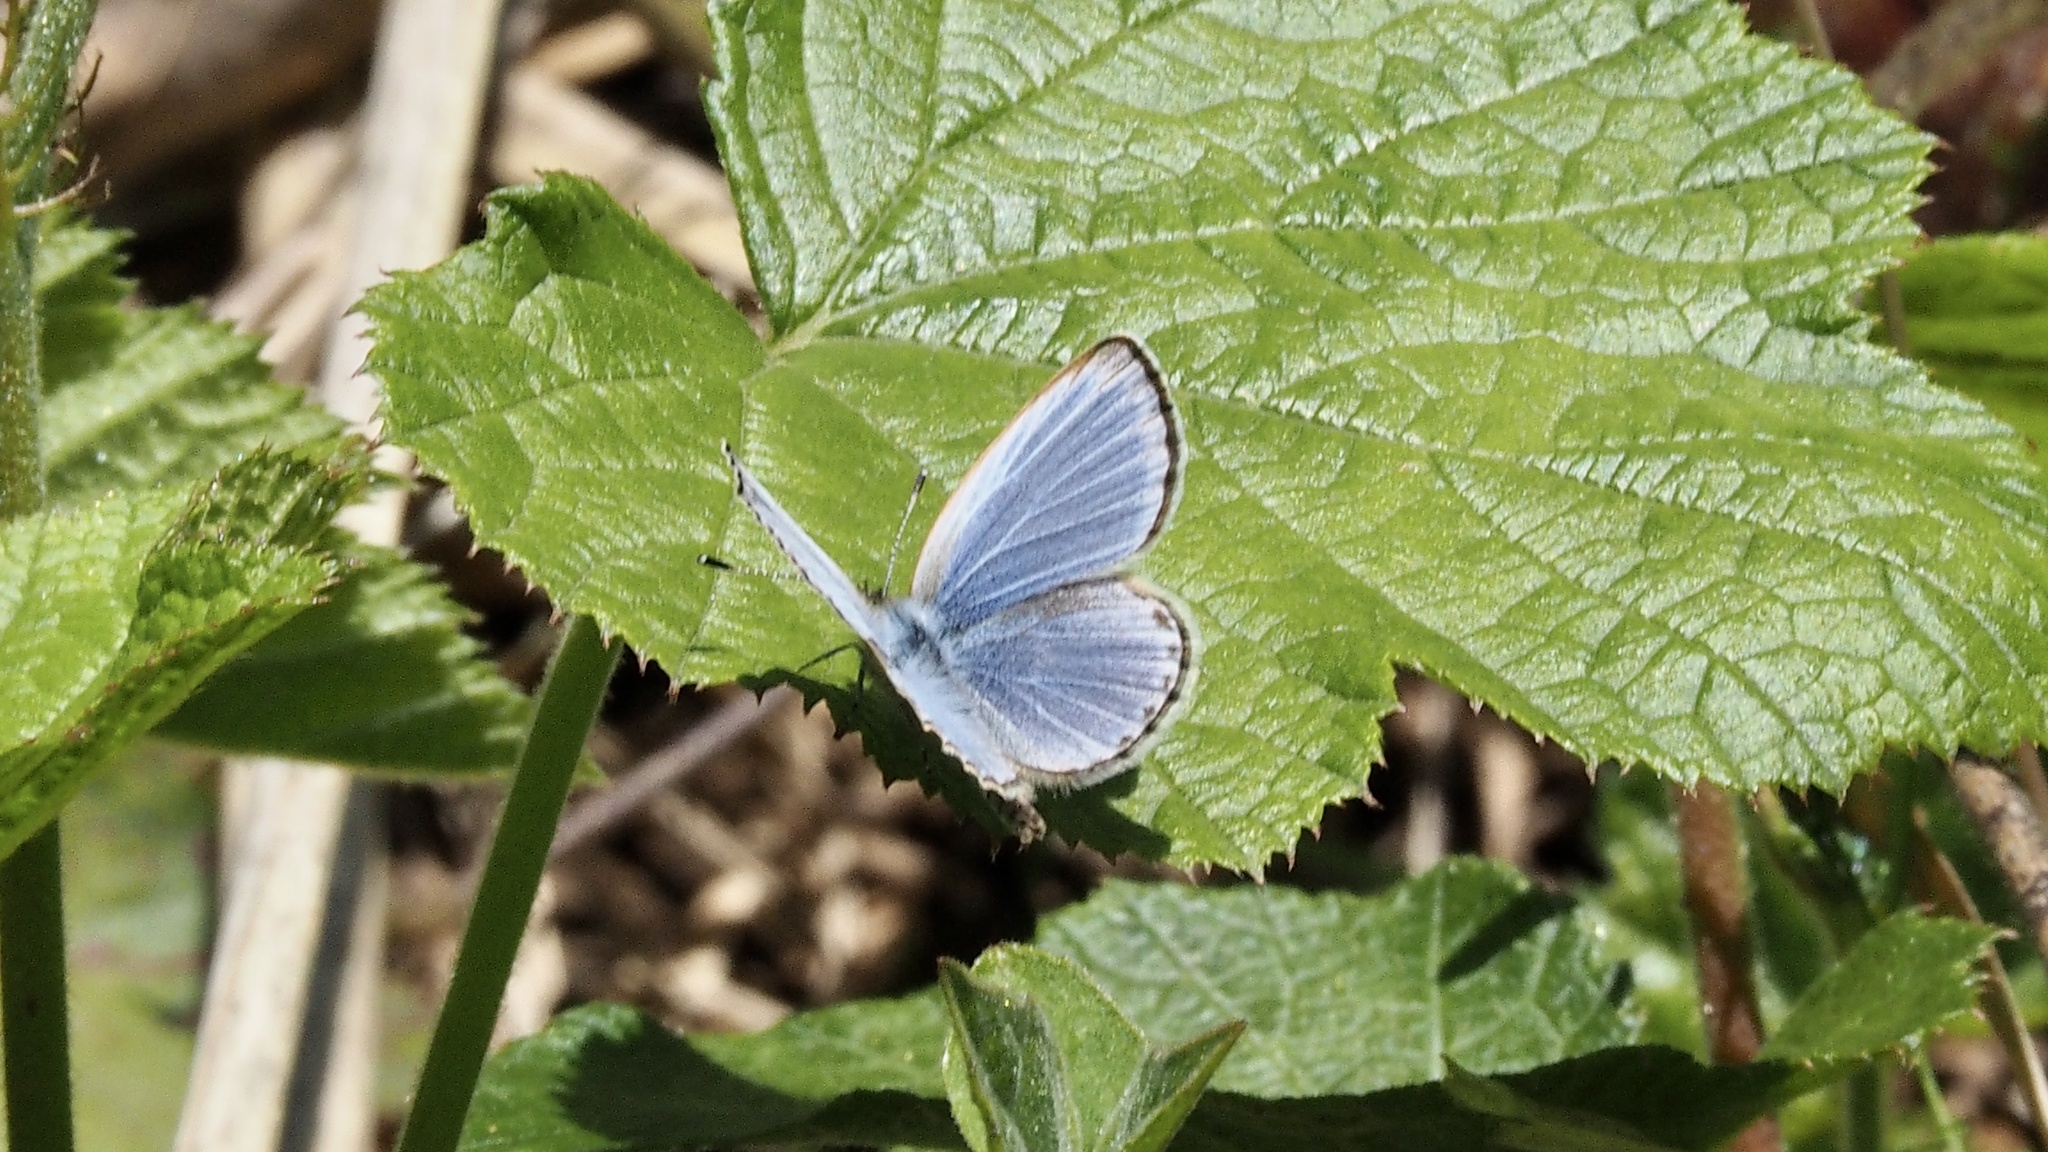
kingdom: Animalia
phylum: Arthropoda
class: Insecta
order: Lepidoptera
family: Lycaenidae
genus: Pseudozizeeria
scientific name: Pseudozizeeria maha
